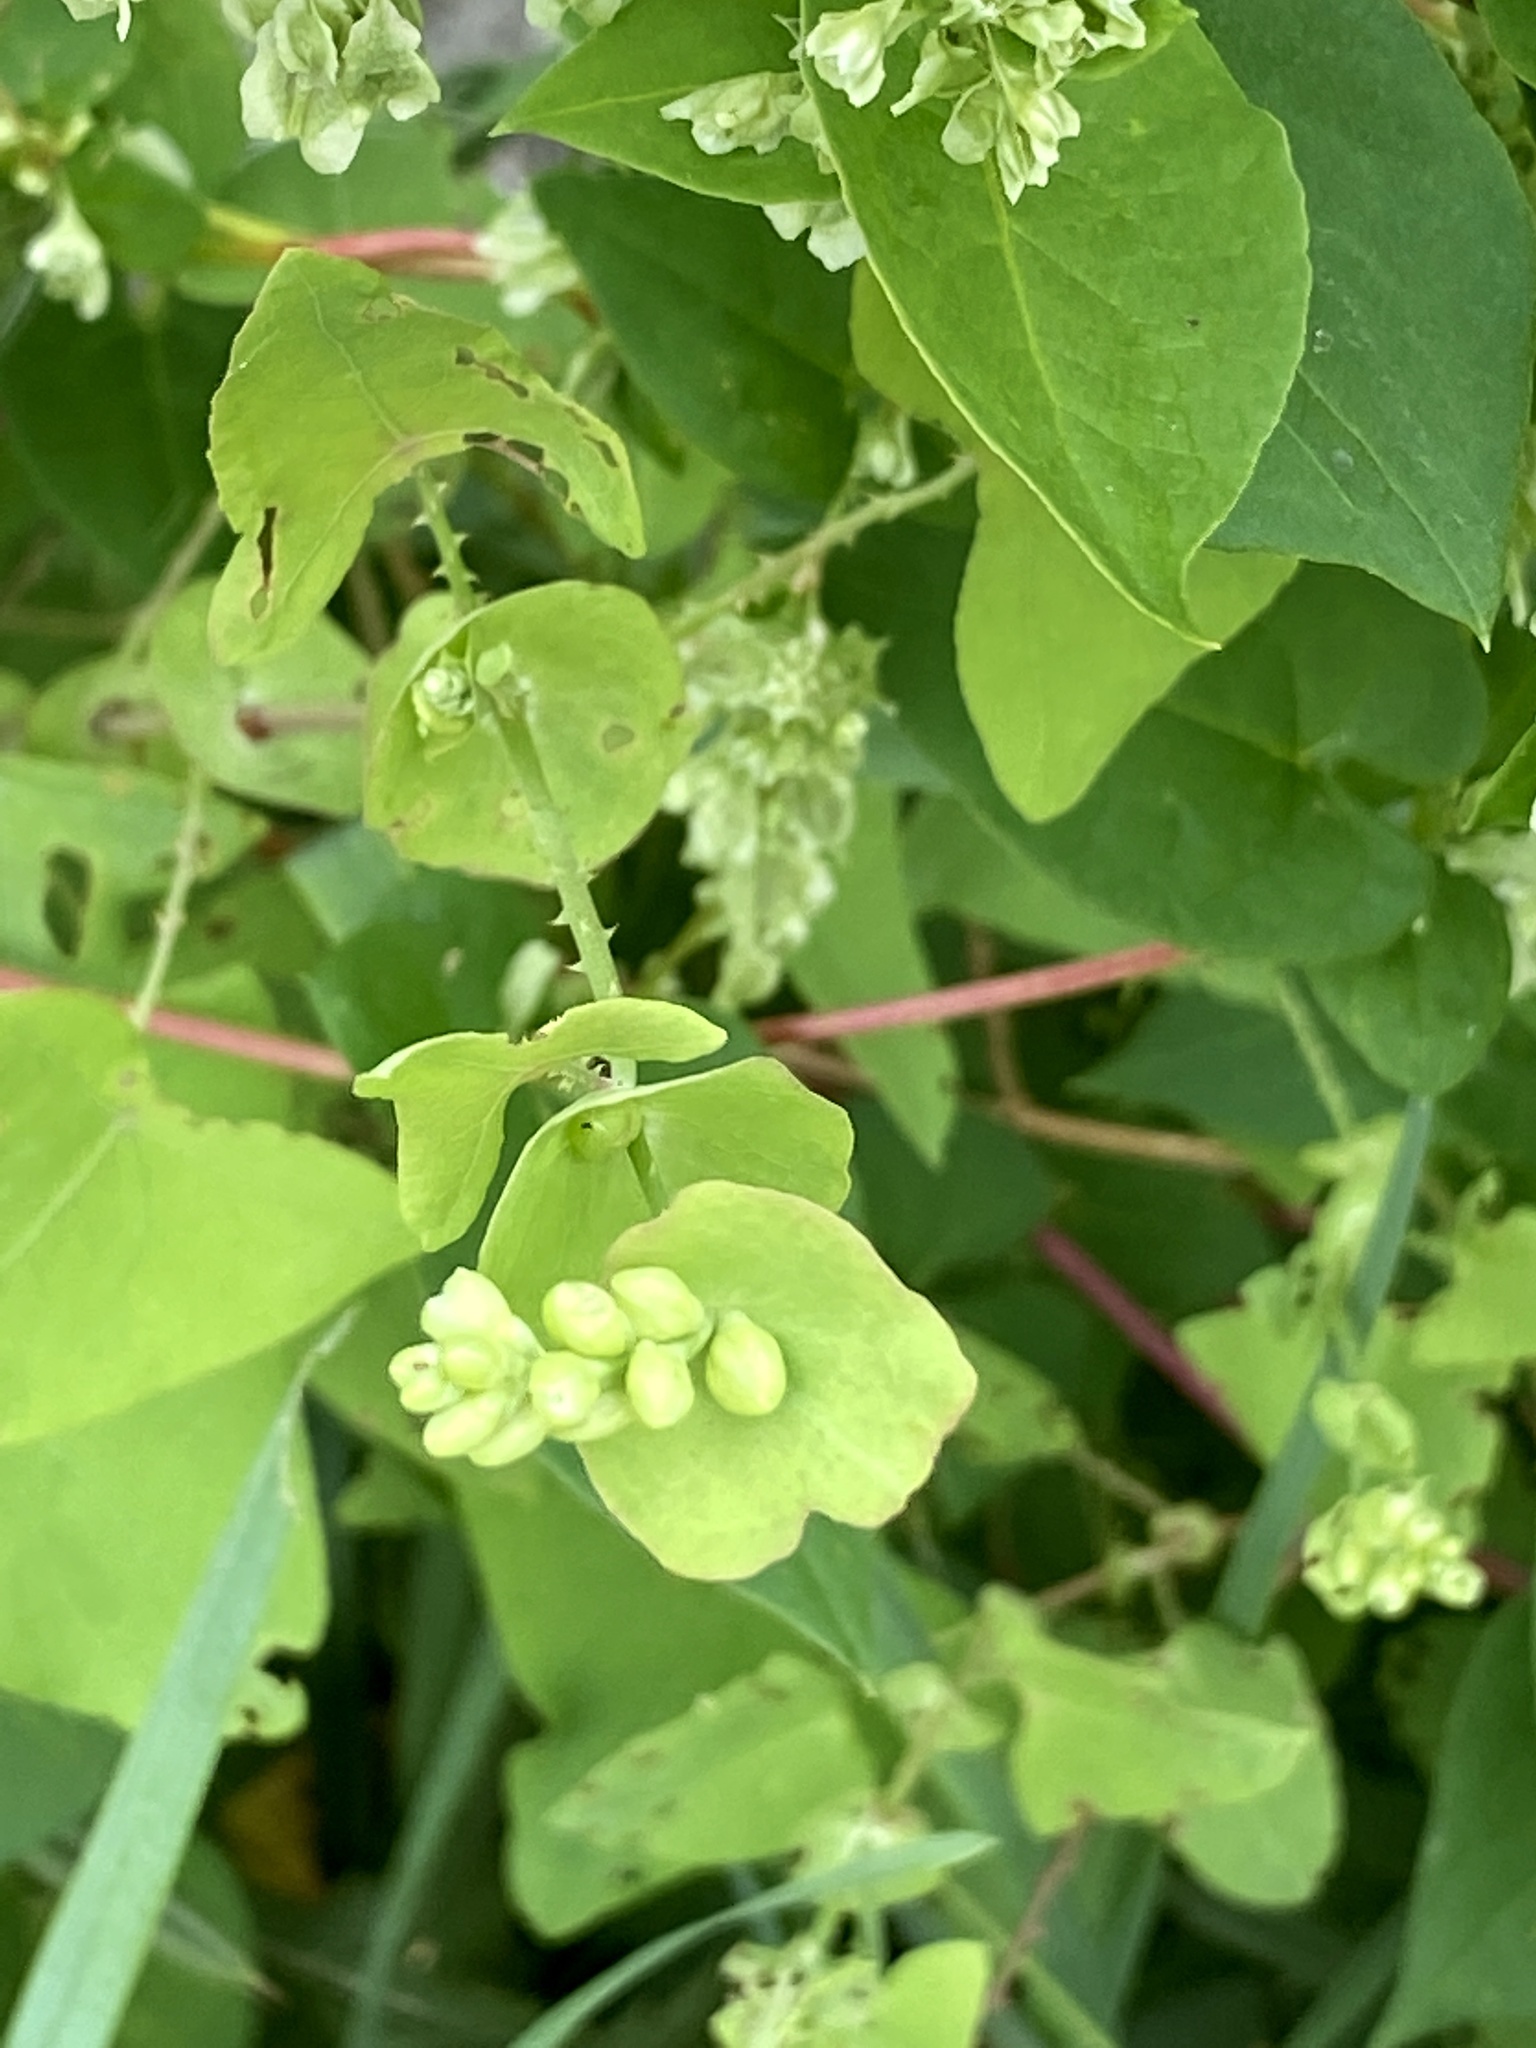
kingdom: Plantae
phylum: Tracheophyta
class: Magnoliopsida
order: Caryophyllales
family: Polygonaceae
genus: Persicaria
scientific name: Persicaria perfoliata
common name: Asiatic tearthumb
